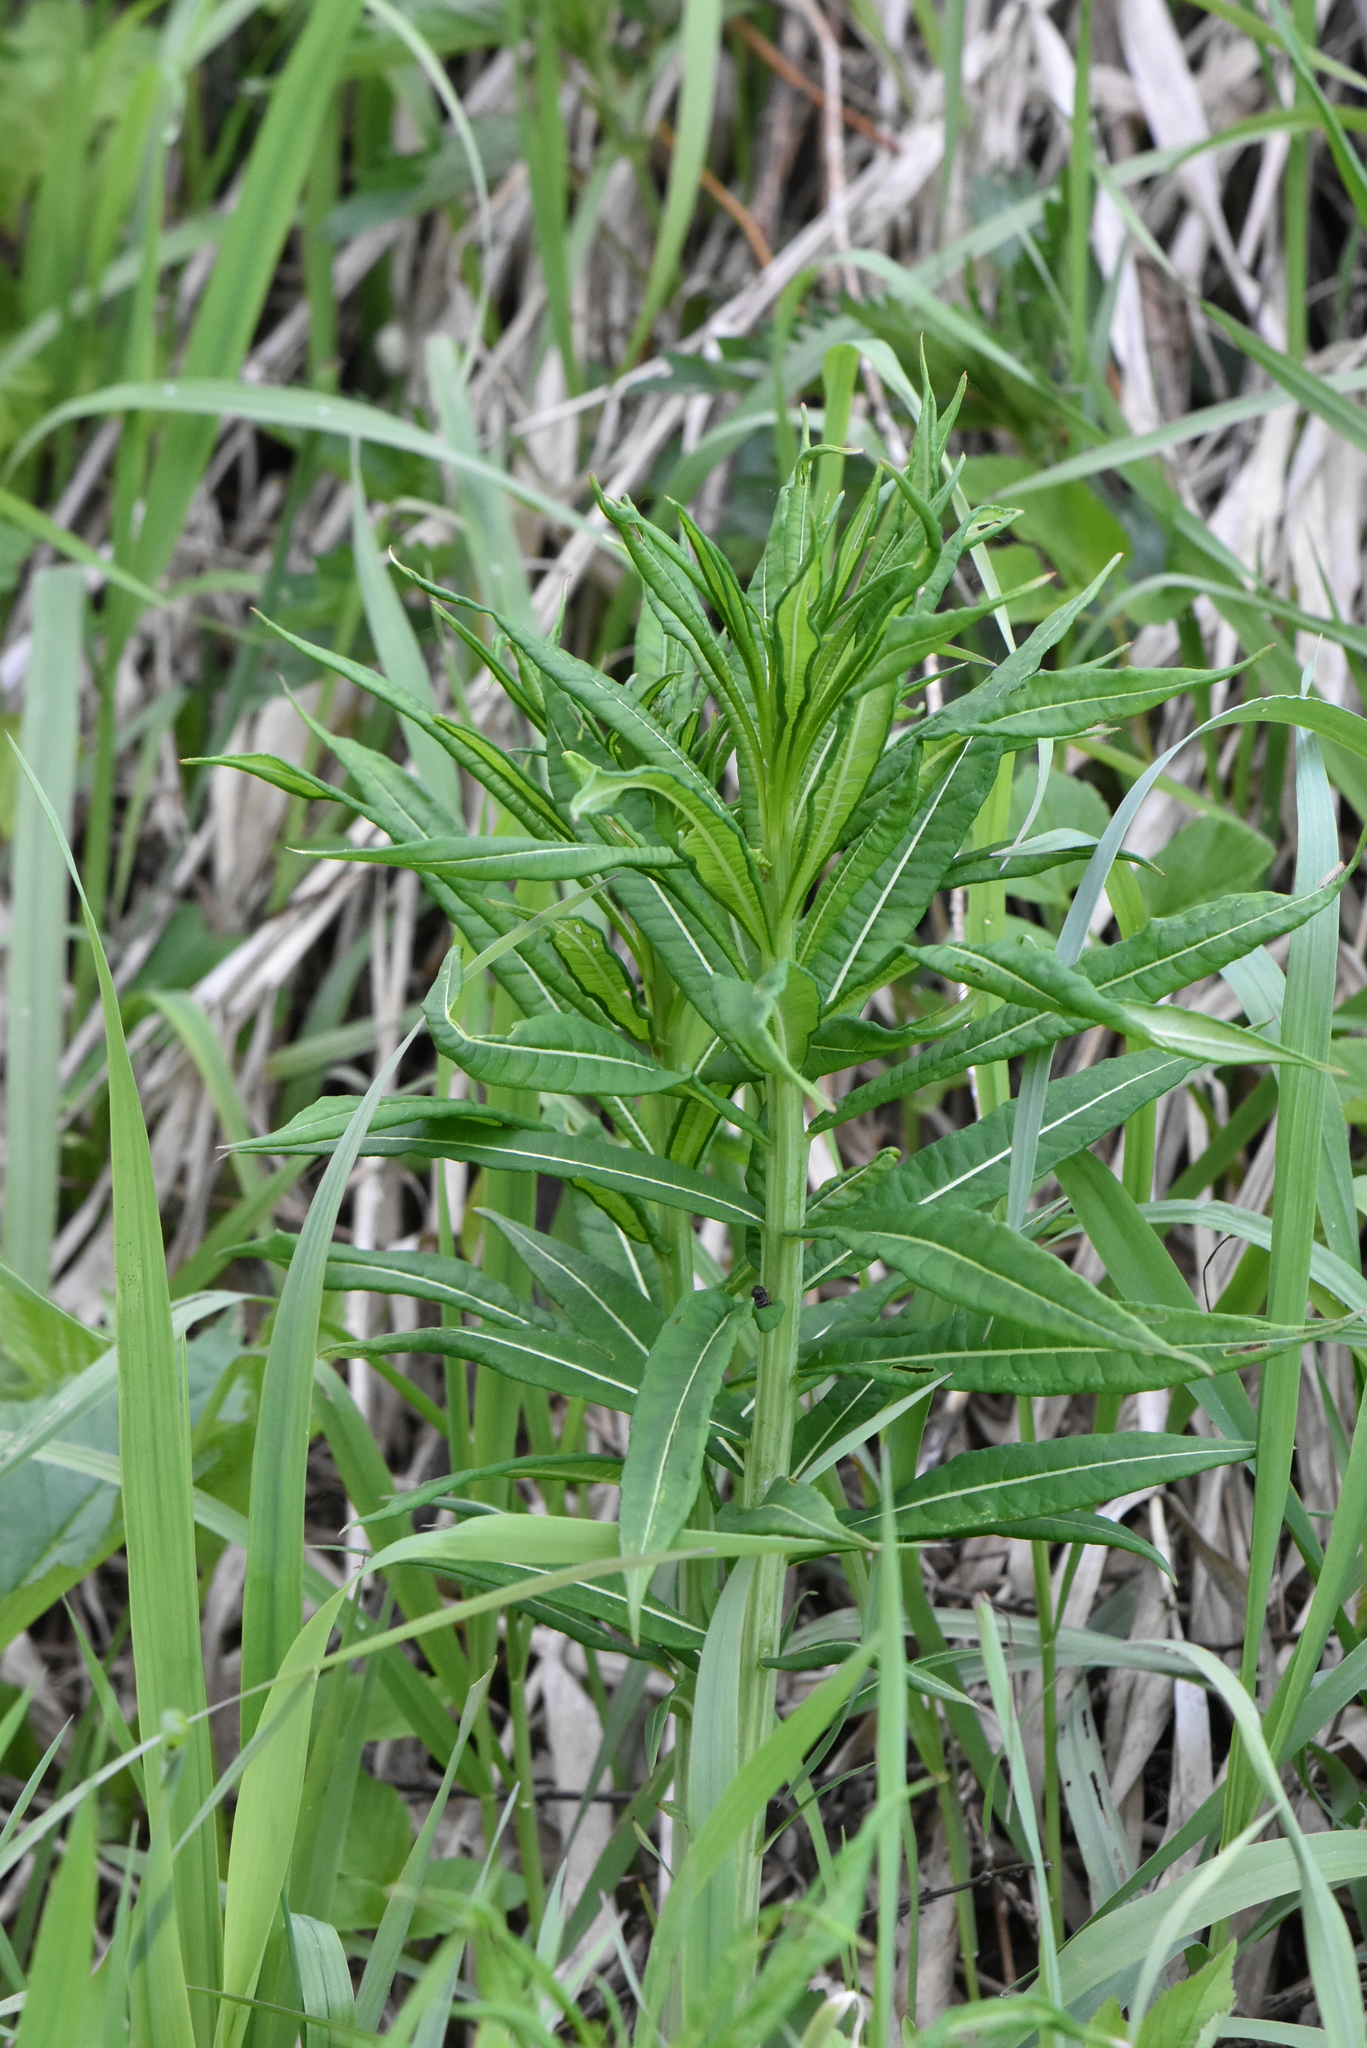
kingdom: Plantae
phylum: Tracheophyta
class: Magnoliopsida
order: Myrtales
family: Onagraceae
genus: Chamaenerion
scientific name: Chamaenerion angustifolium
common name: Fireweed
